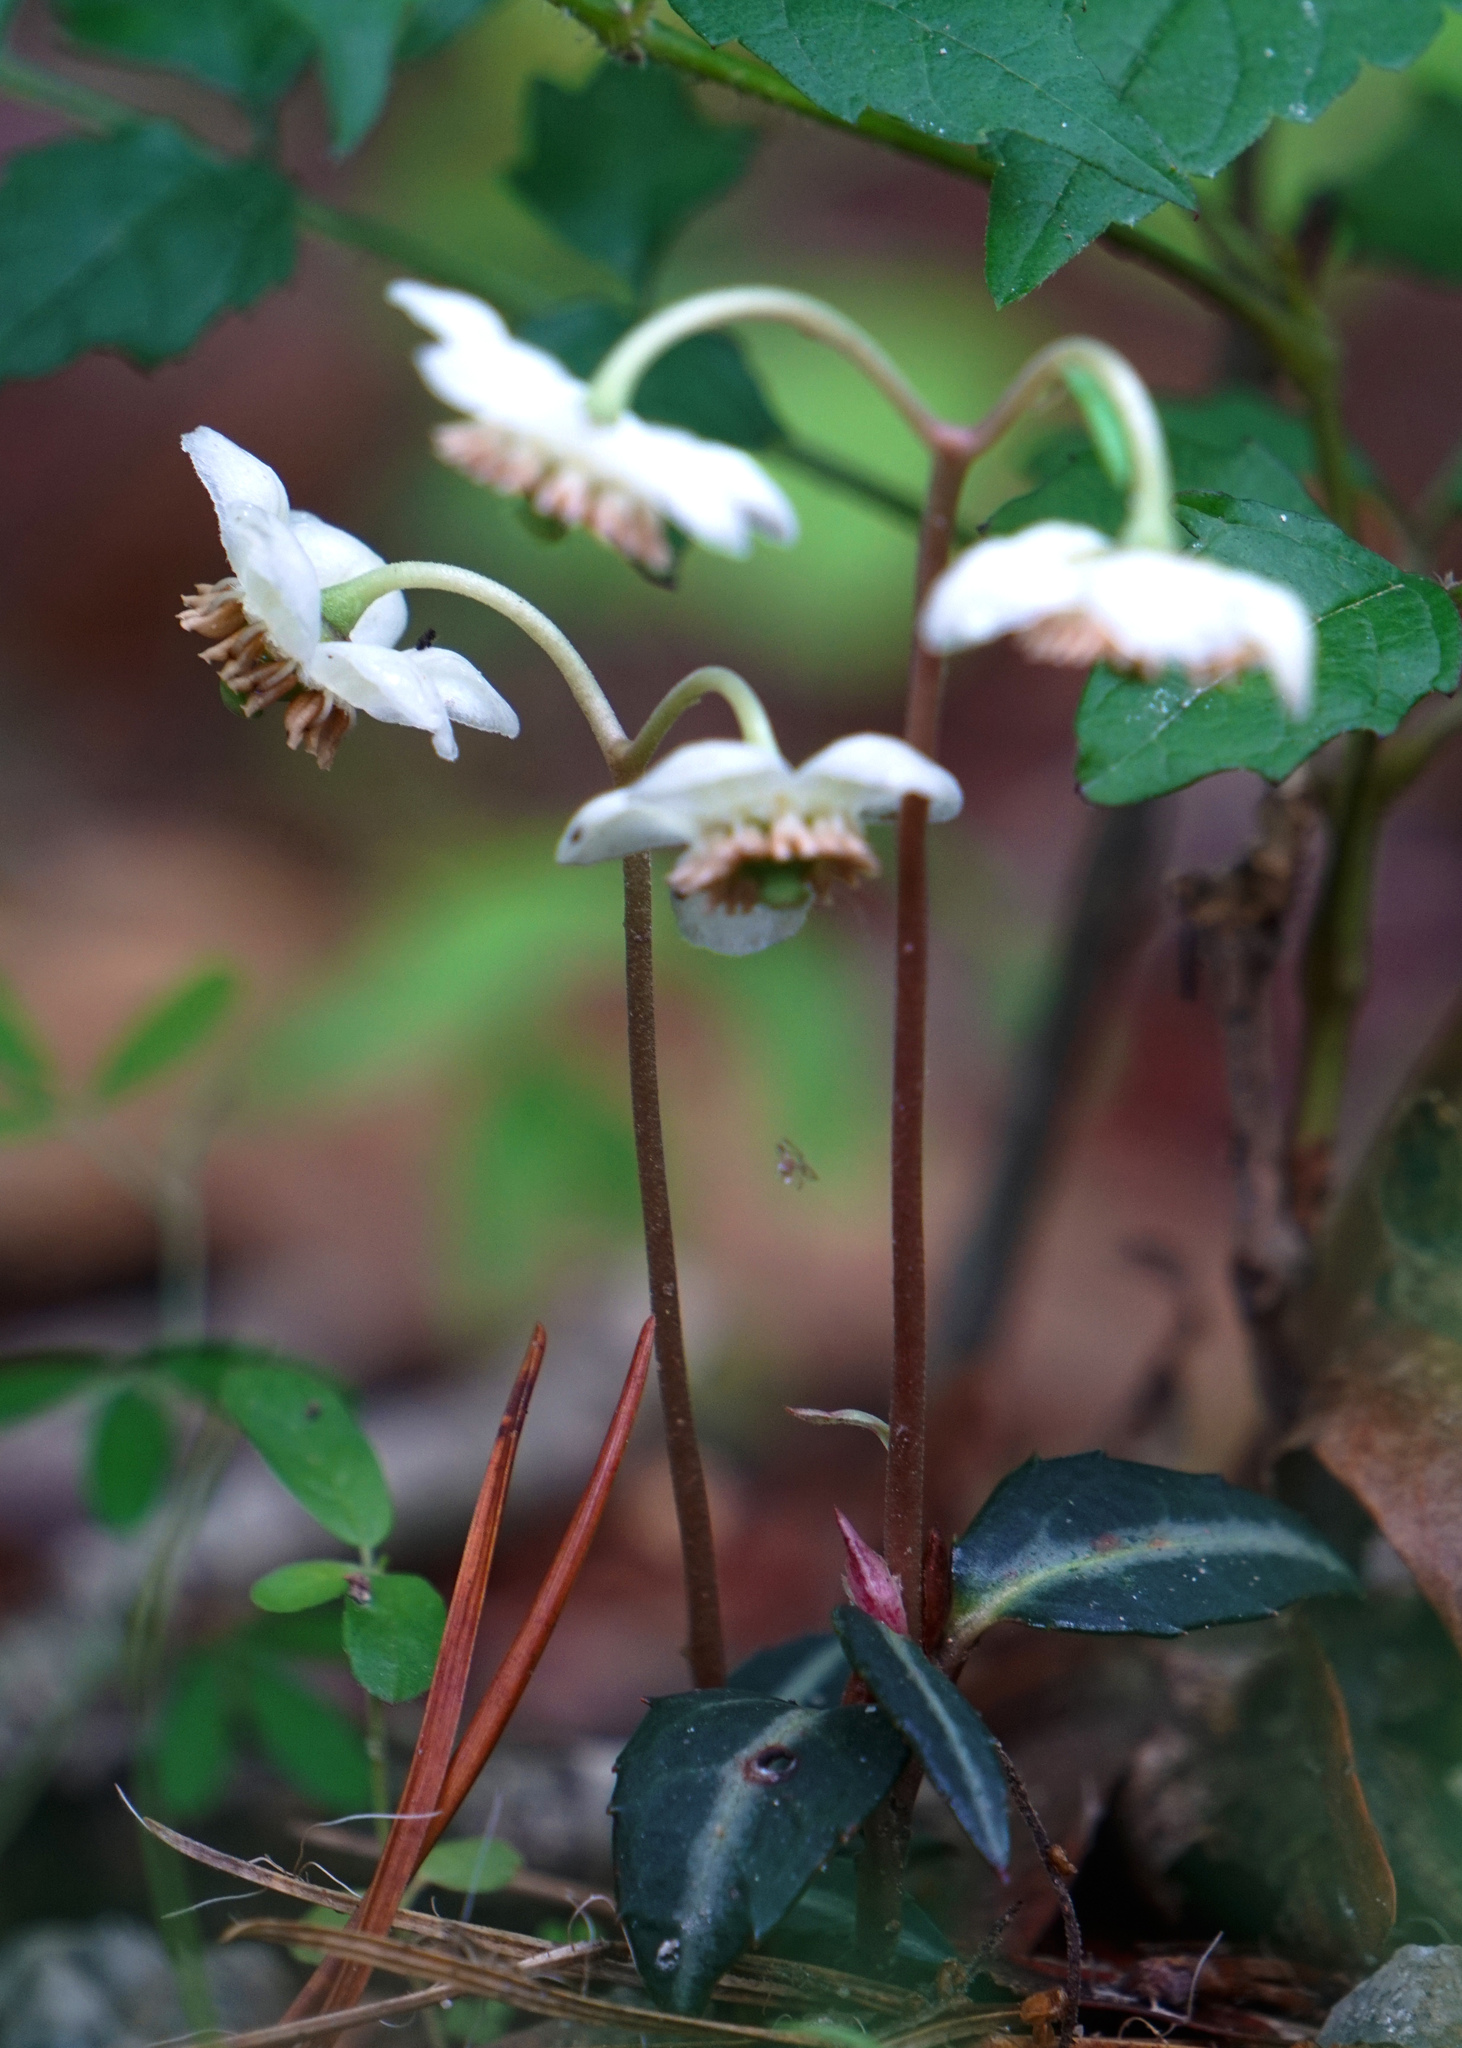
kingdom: Plantae
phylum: Tracheophyta
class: Magnoliopsida
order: Ericales
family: Ericaceae
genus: Chimaphila
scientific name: Chimaphila maculata
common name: Spotted pipsissewa
